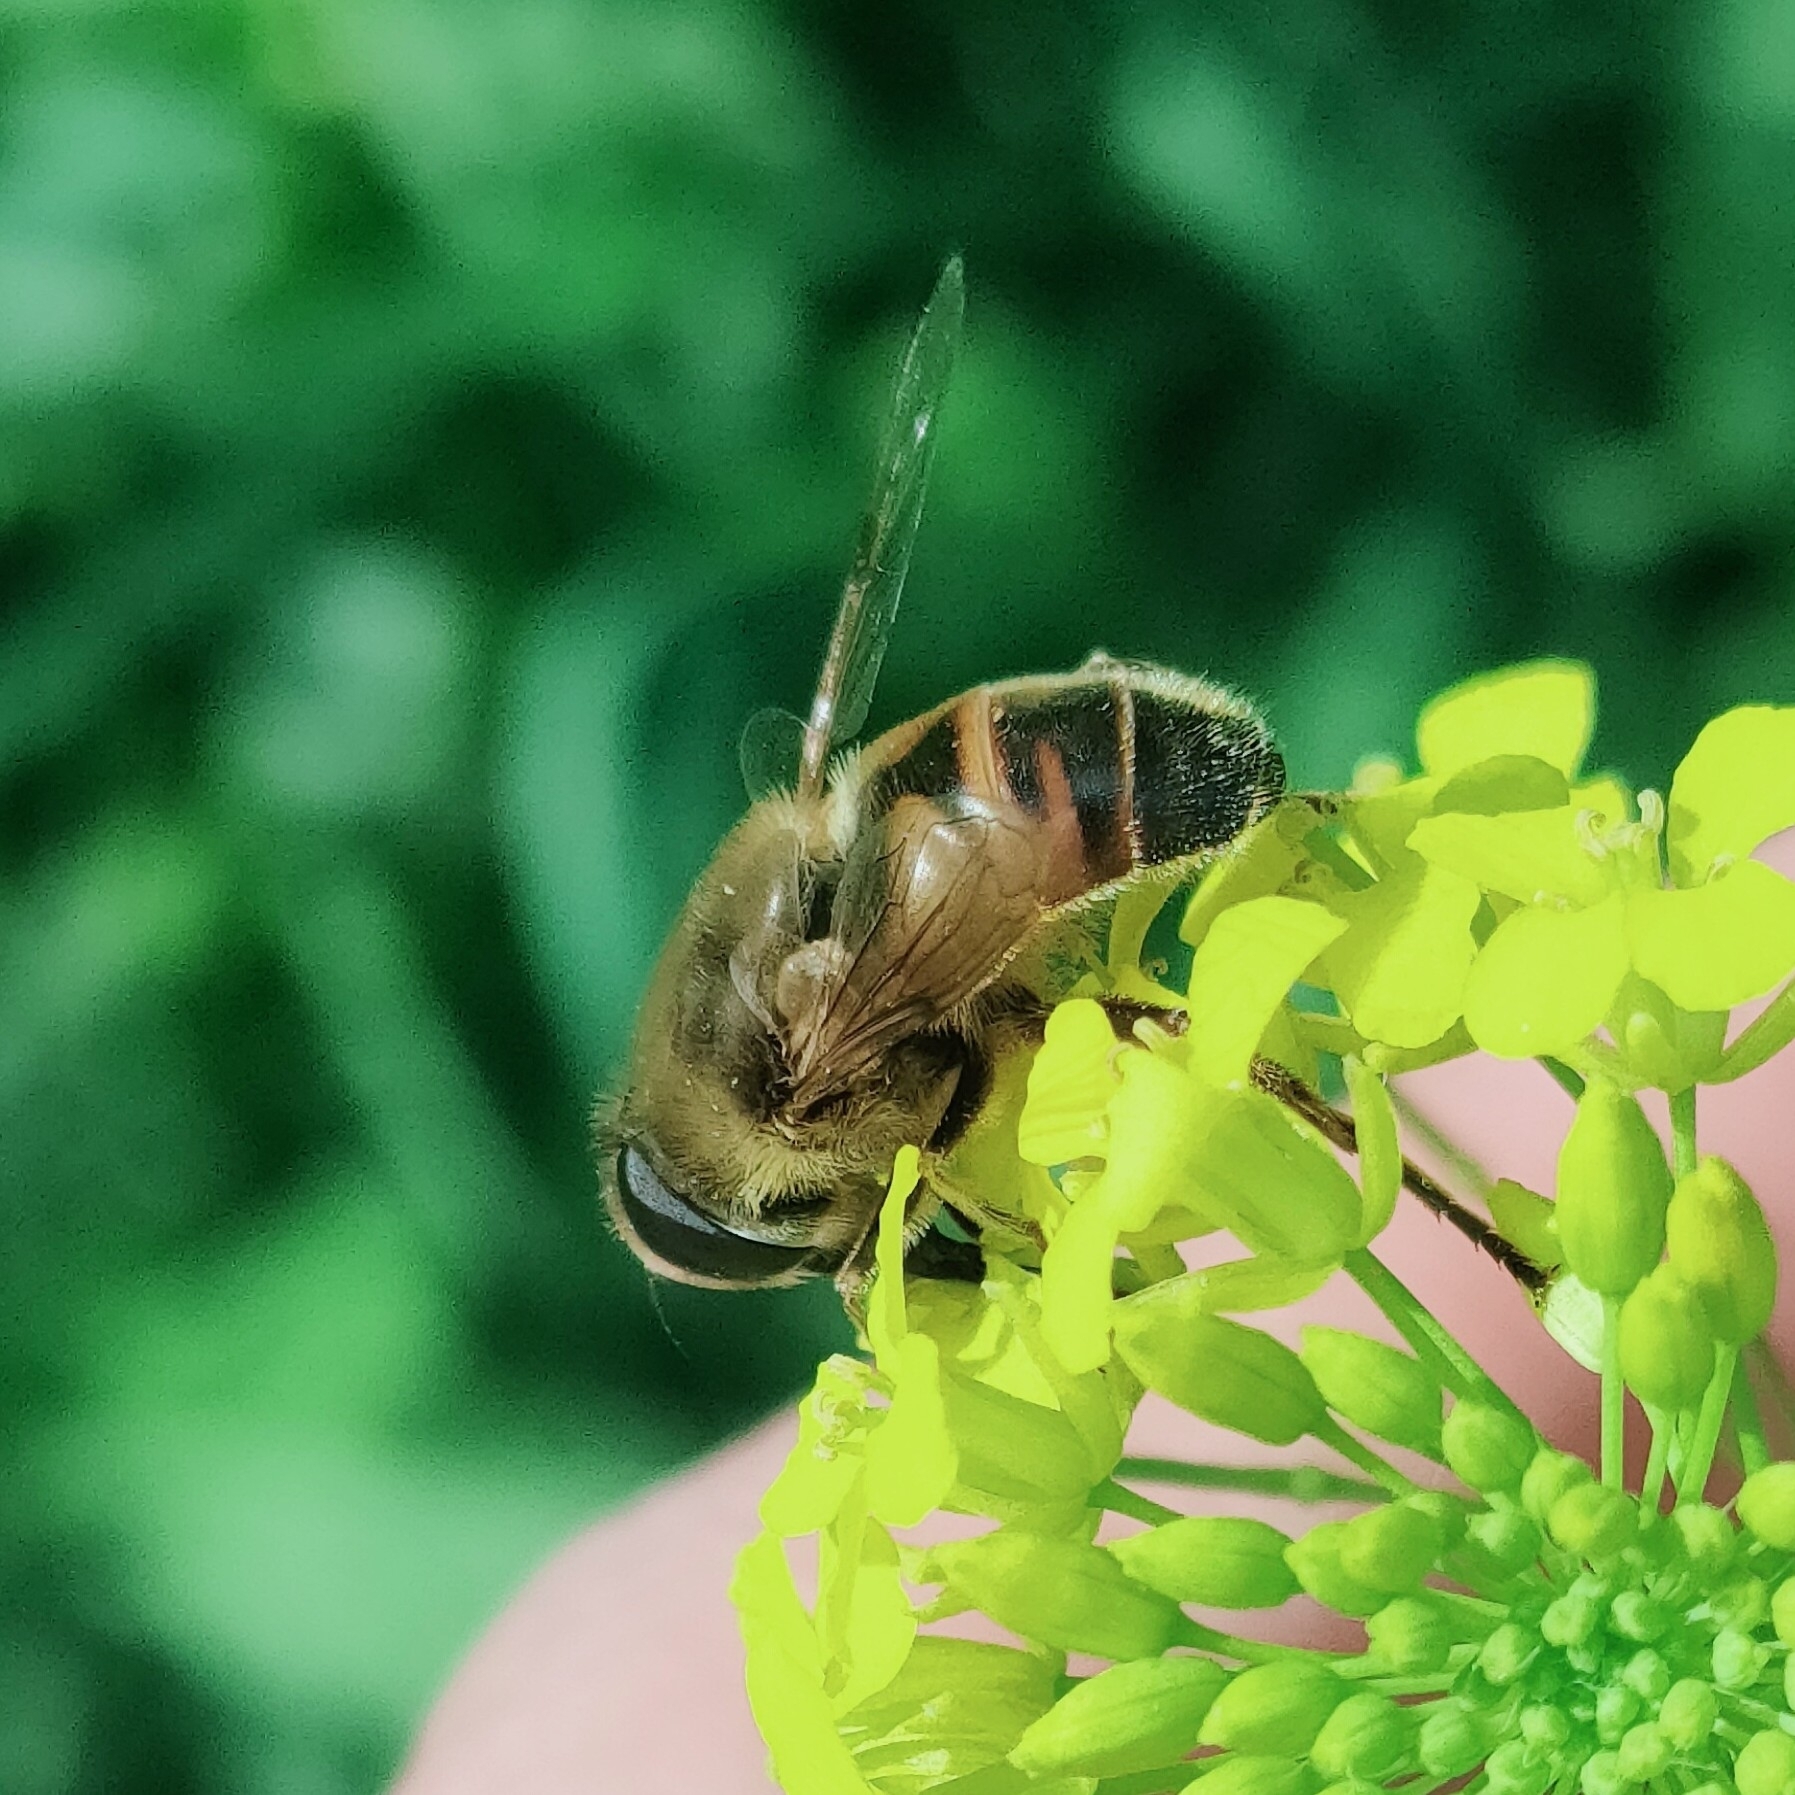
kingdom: Animalia
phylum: Arthropoda
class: Insecta
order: Diptera
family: Syrphidae
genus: Eristalis
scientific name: Eristalis tenax
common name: Drone fly
